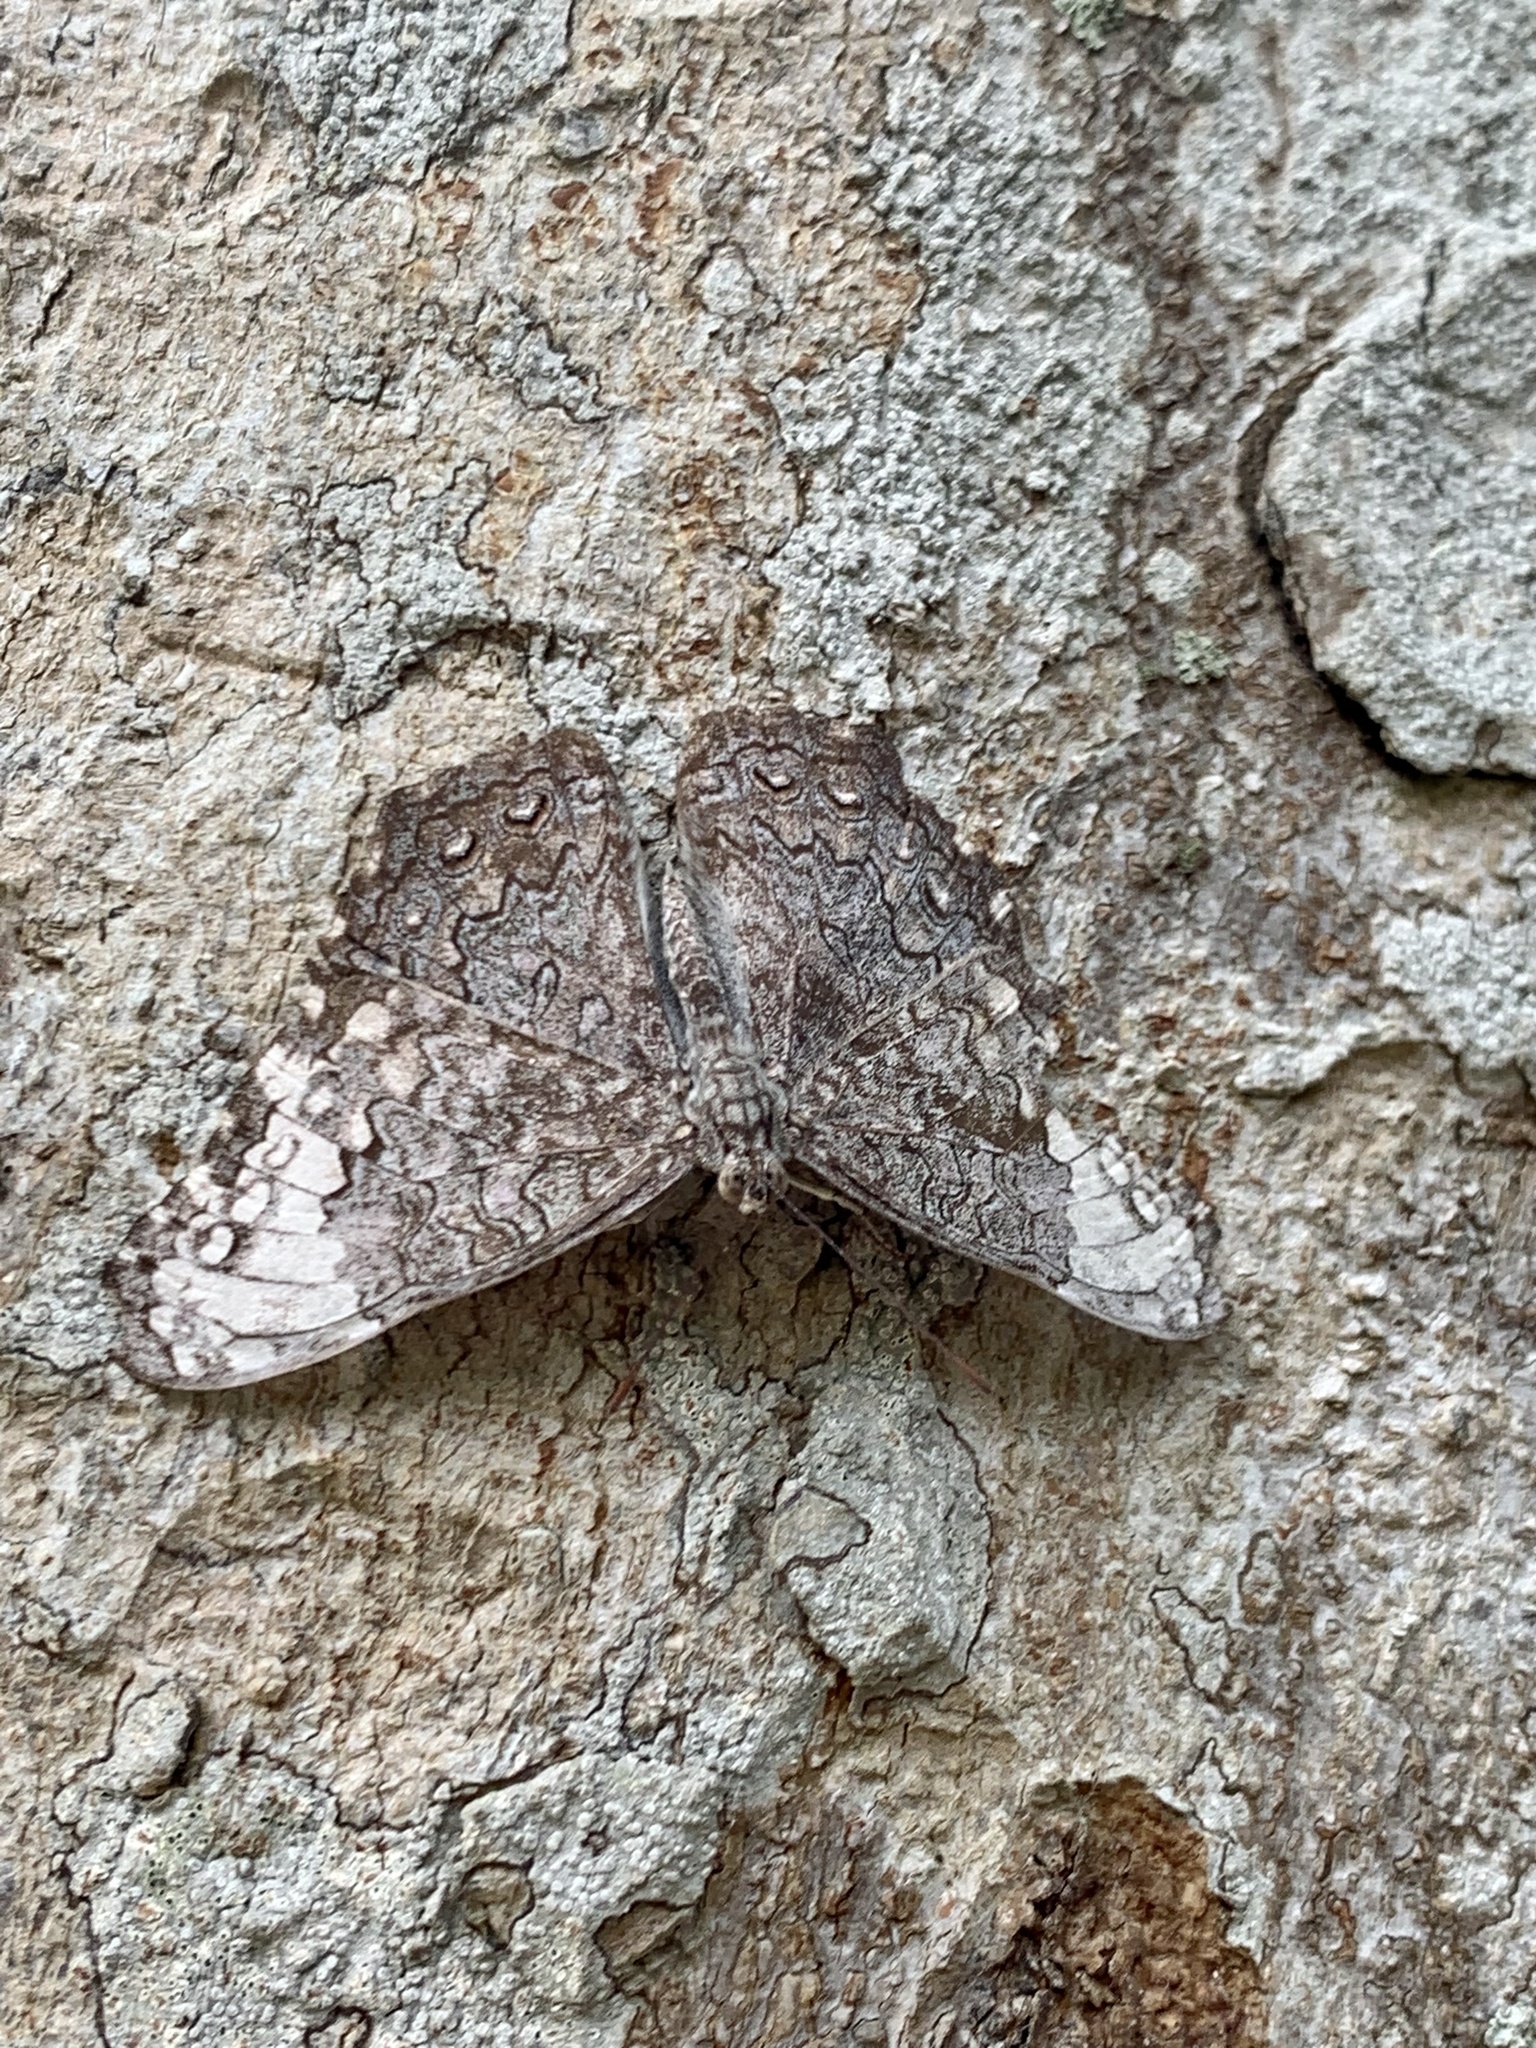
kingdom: Animalia
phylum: Arthropoda
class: Insecta
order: Lepidoptera
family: Nymphalidae
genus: Hamadryas
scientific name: Hamadryas glauconome
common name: Glaucous cracker
